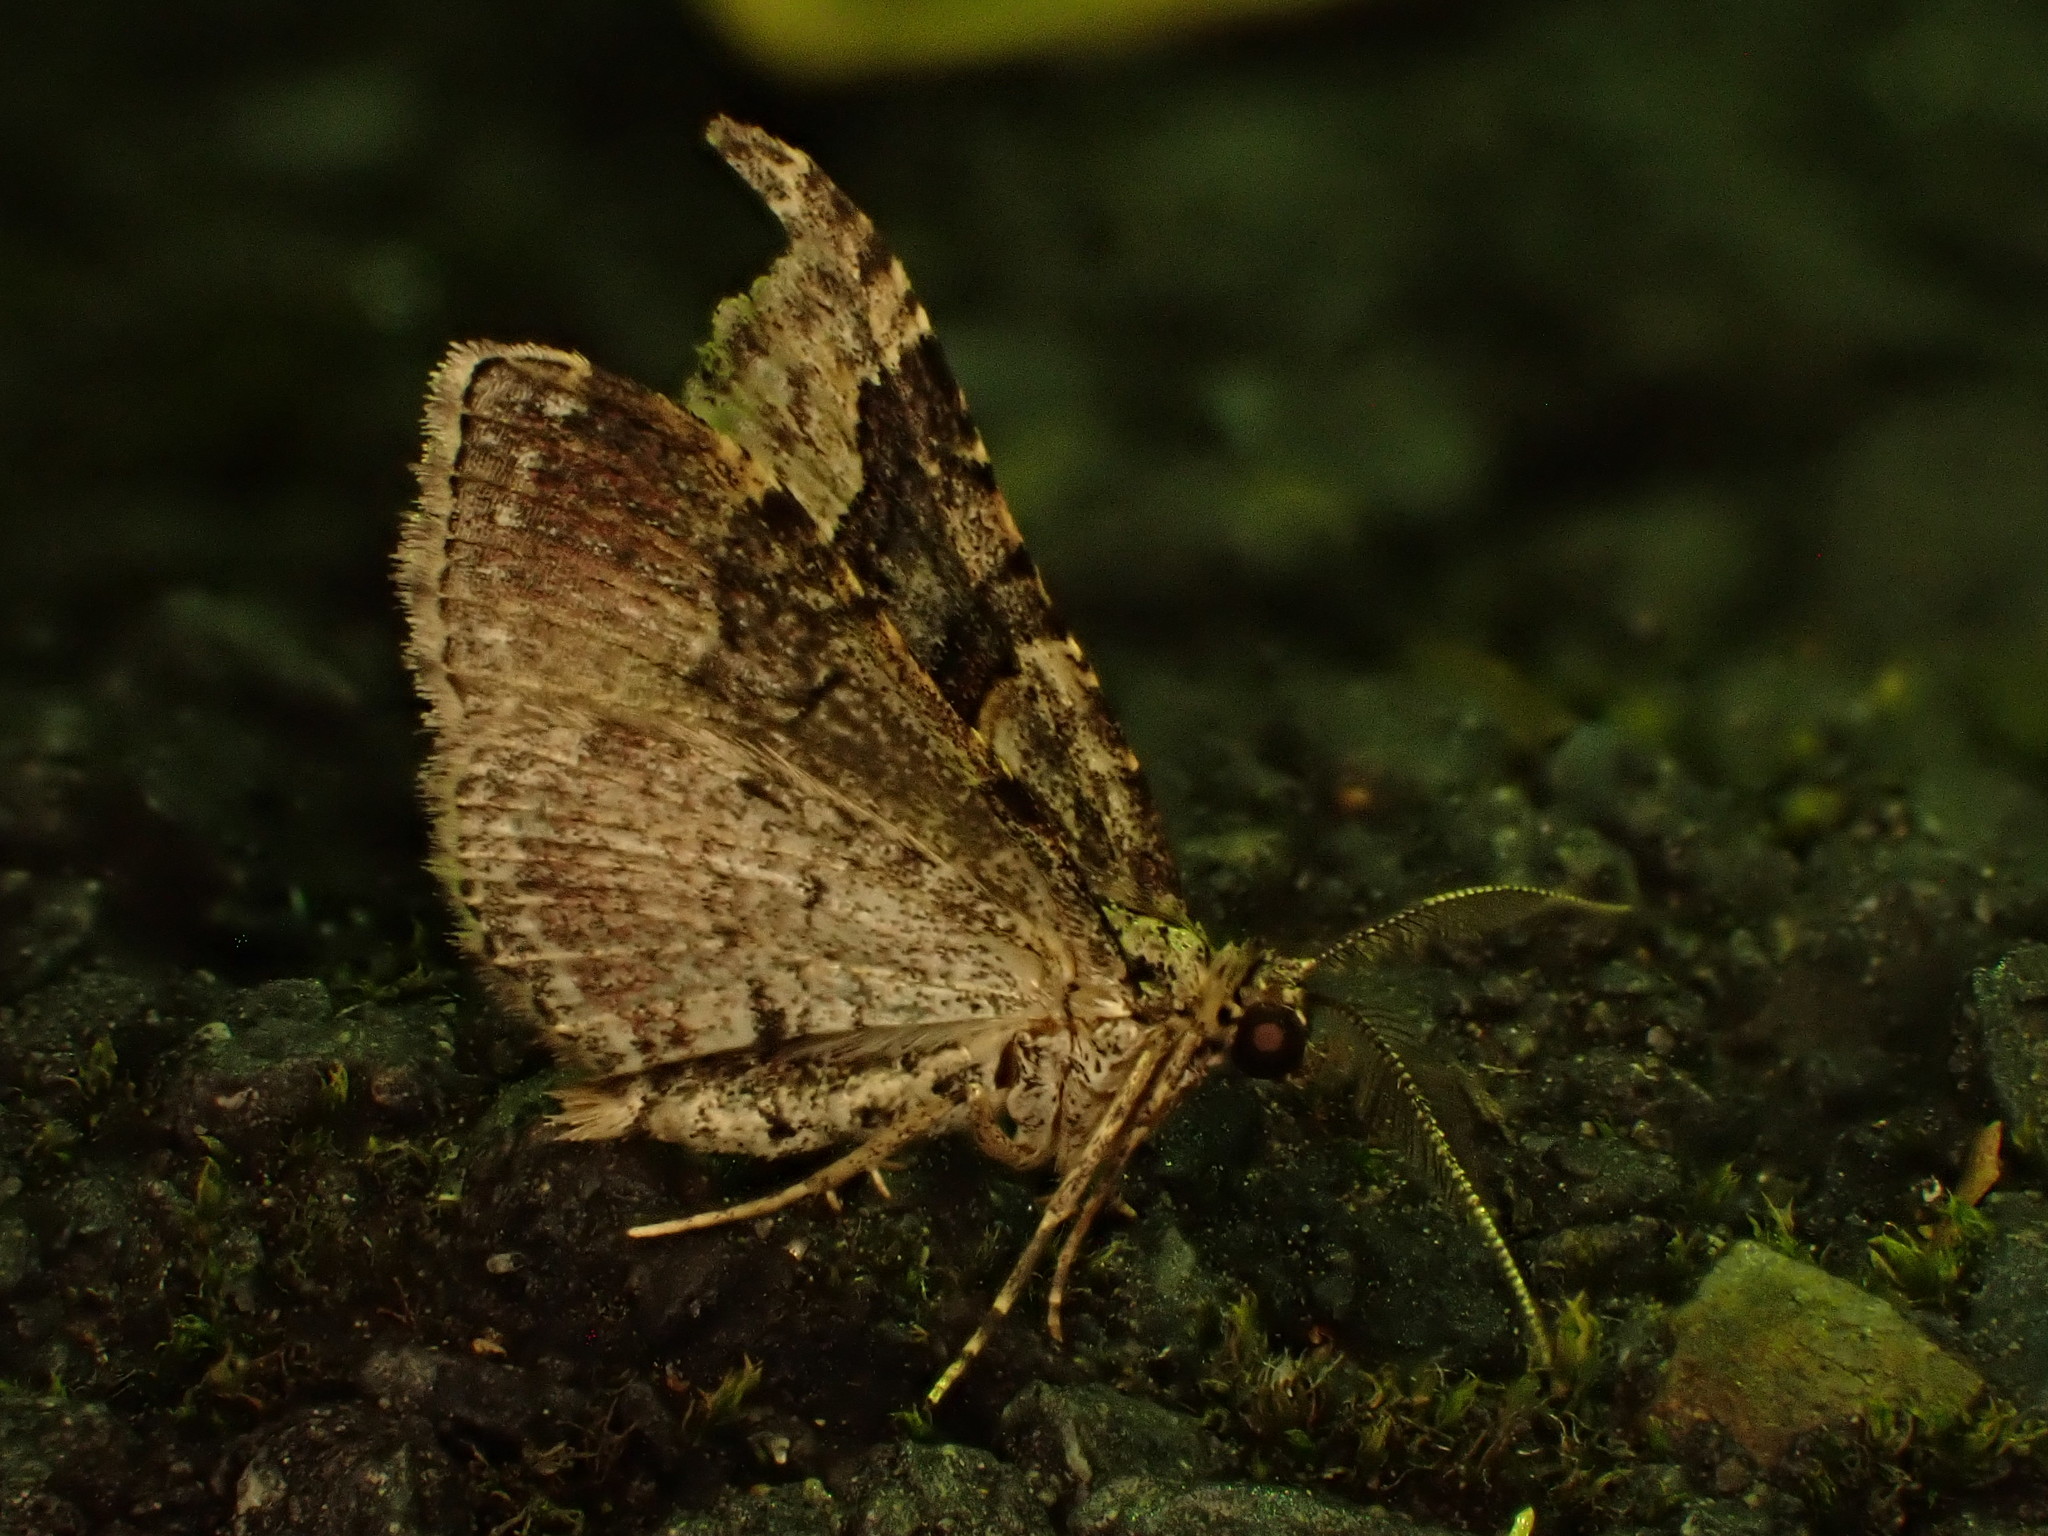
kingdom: Animalia
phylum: Arthropoda
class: Insecta
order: Lepidoptera
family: Geometridae
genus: Epyaxa
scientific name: Epyaxa lucidata
